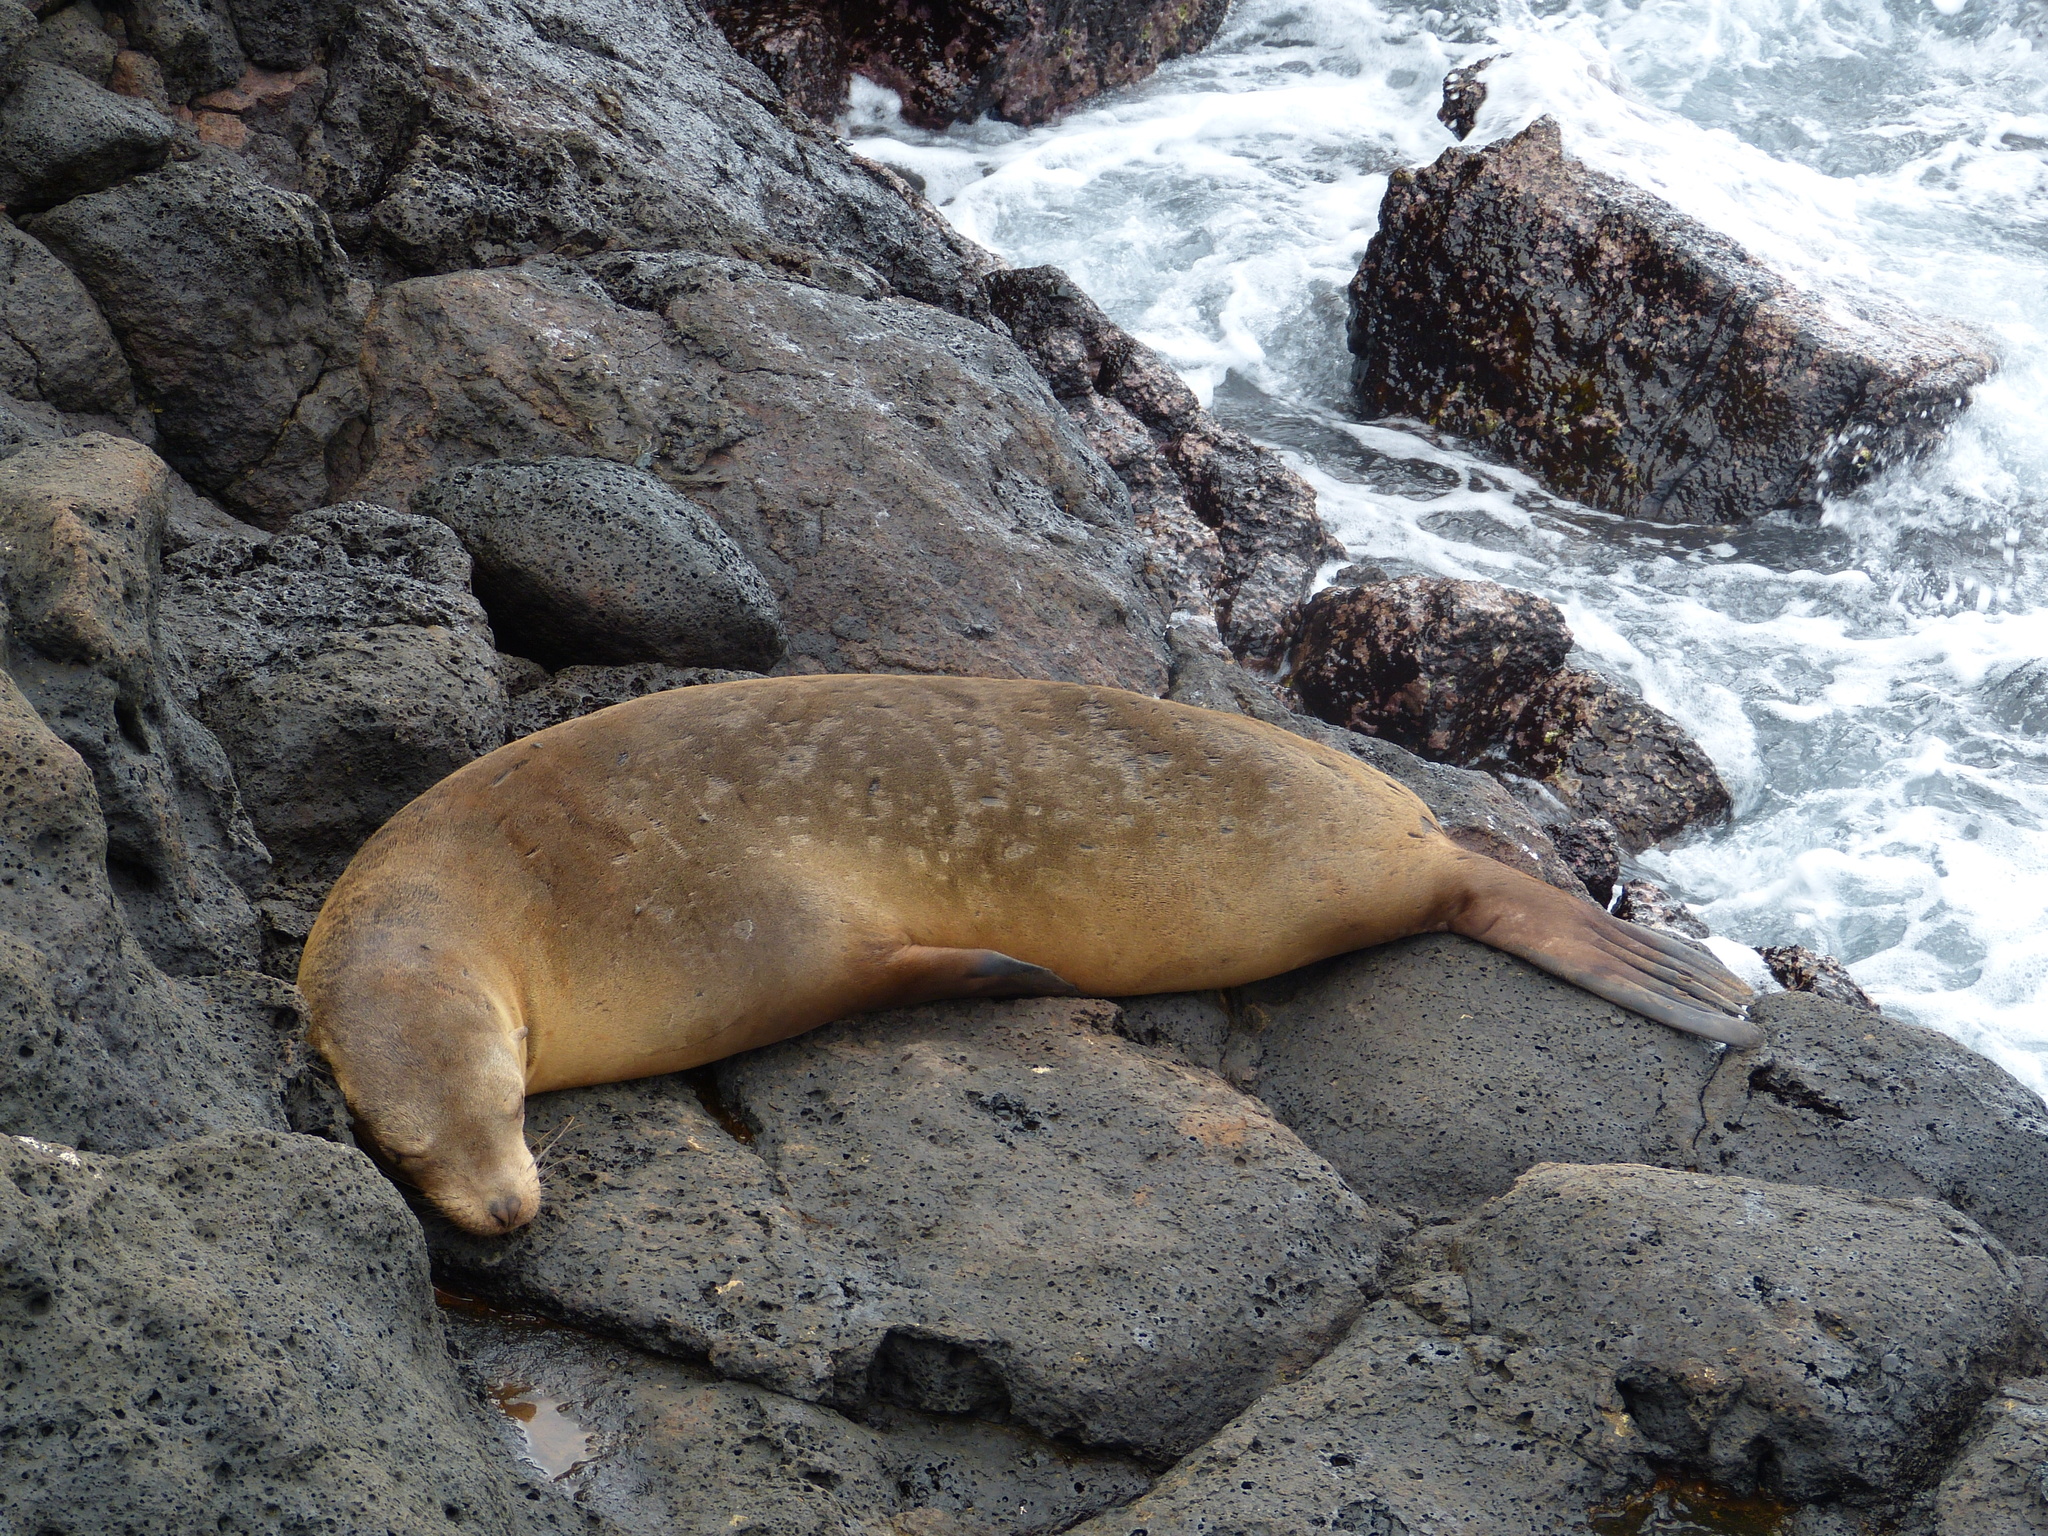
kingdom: Animalia
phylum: Chordata
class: Mammalia
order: Carnivora
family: Otariidae
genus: Zalophus
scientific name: Zalophus wollebaeki
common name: Galapagos sea lion
